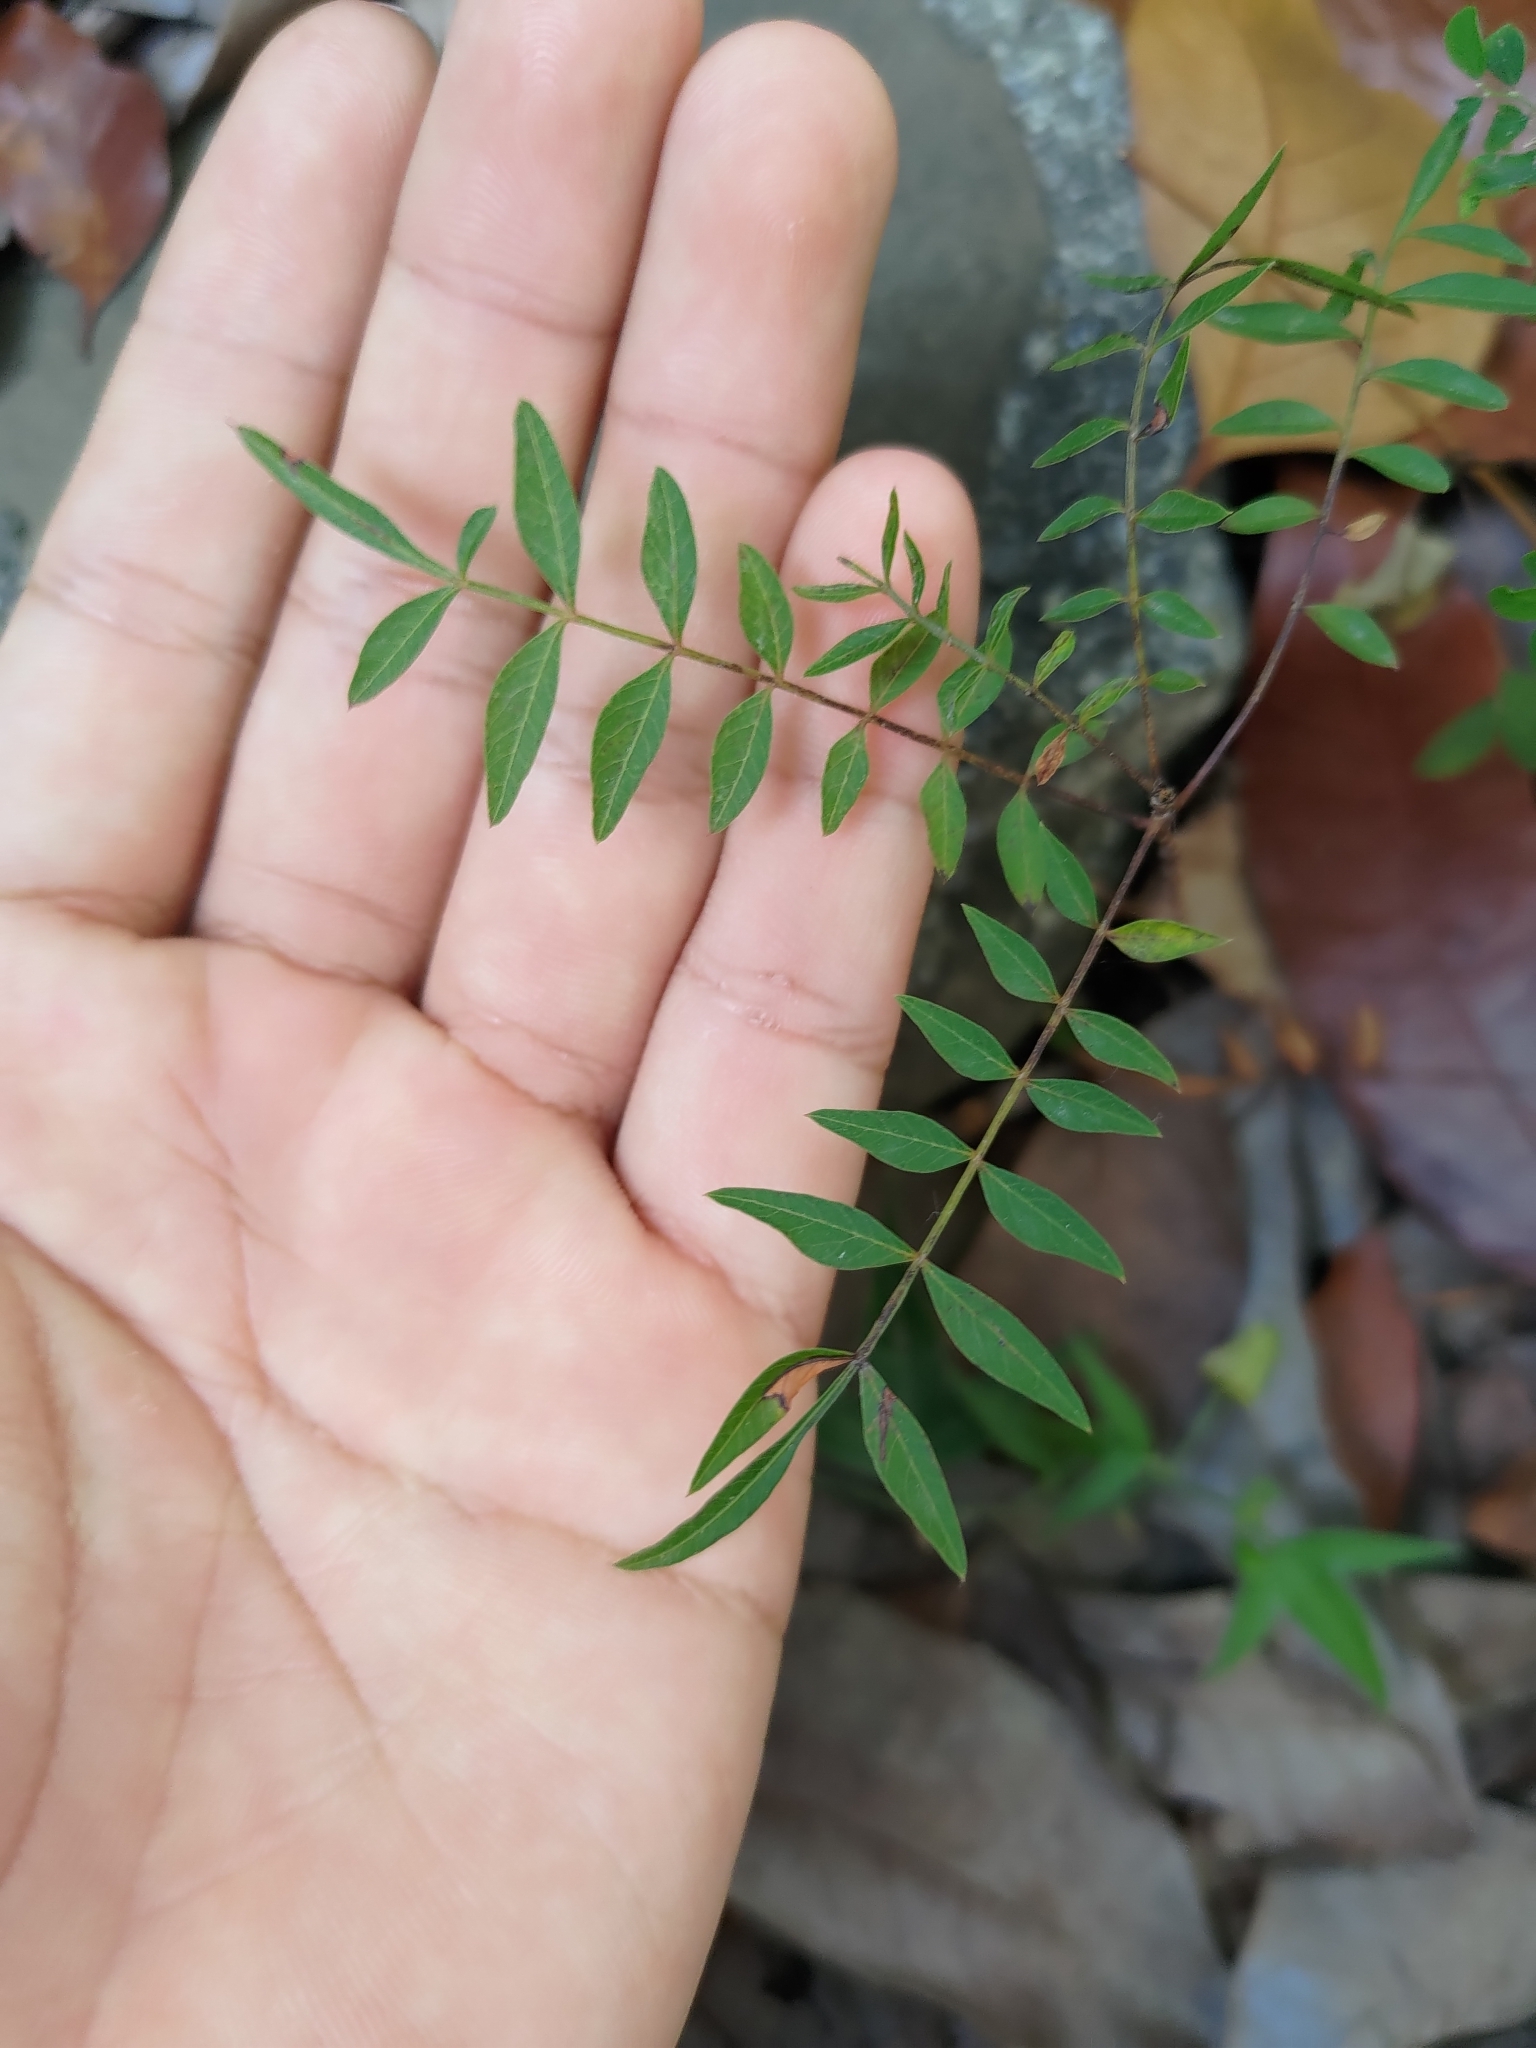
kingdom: Plantae
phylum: Tracheophyta
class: Magnoliopsida
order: Sapindales
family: Anacardiaceae
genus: Pistacia
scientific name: Pistacia chinensis
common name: Chinese pistache
